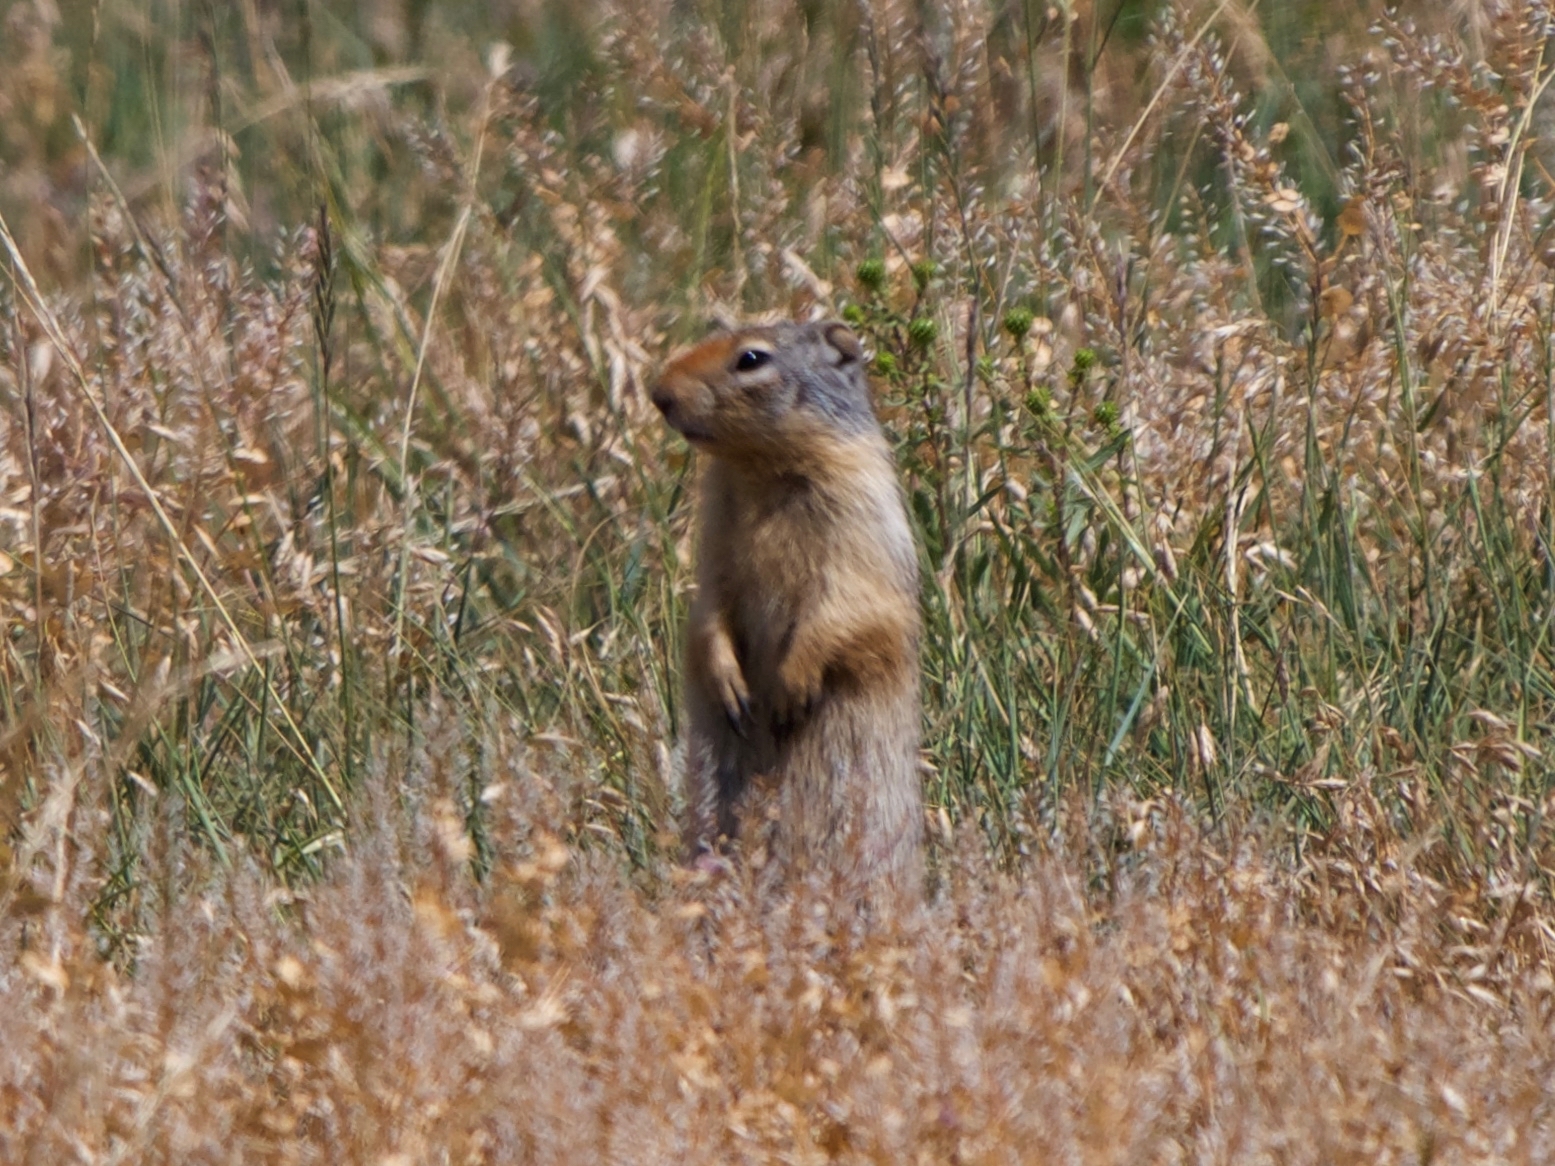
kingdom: Animalia
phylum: Chordata
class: Mammalia
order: Rodentia
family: Sciuridae
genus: Urocitellus
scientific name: Urocitellus columbianus
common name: Columbian ground squirrel
